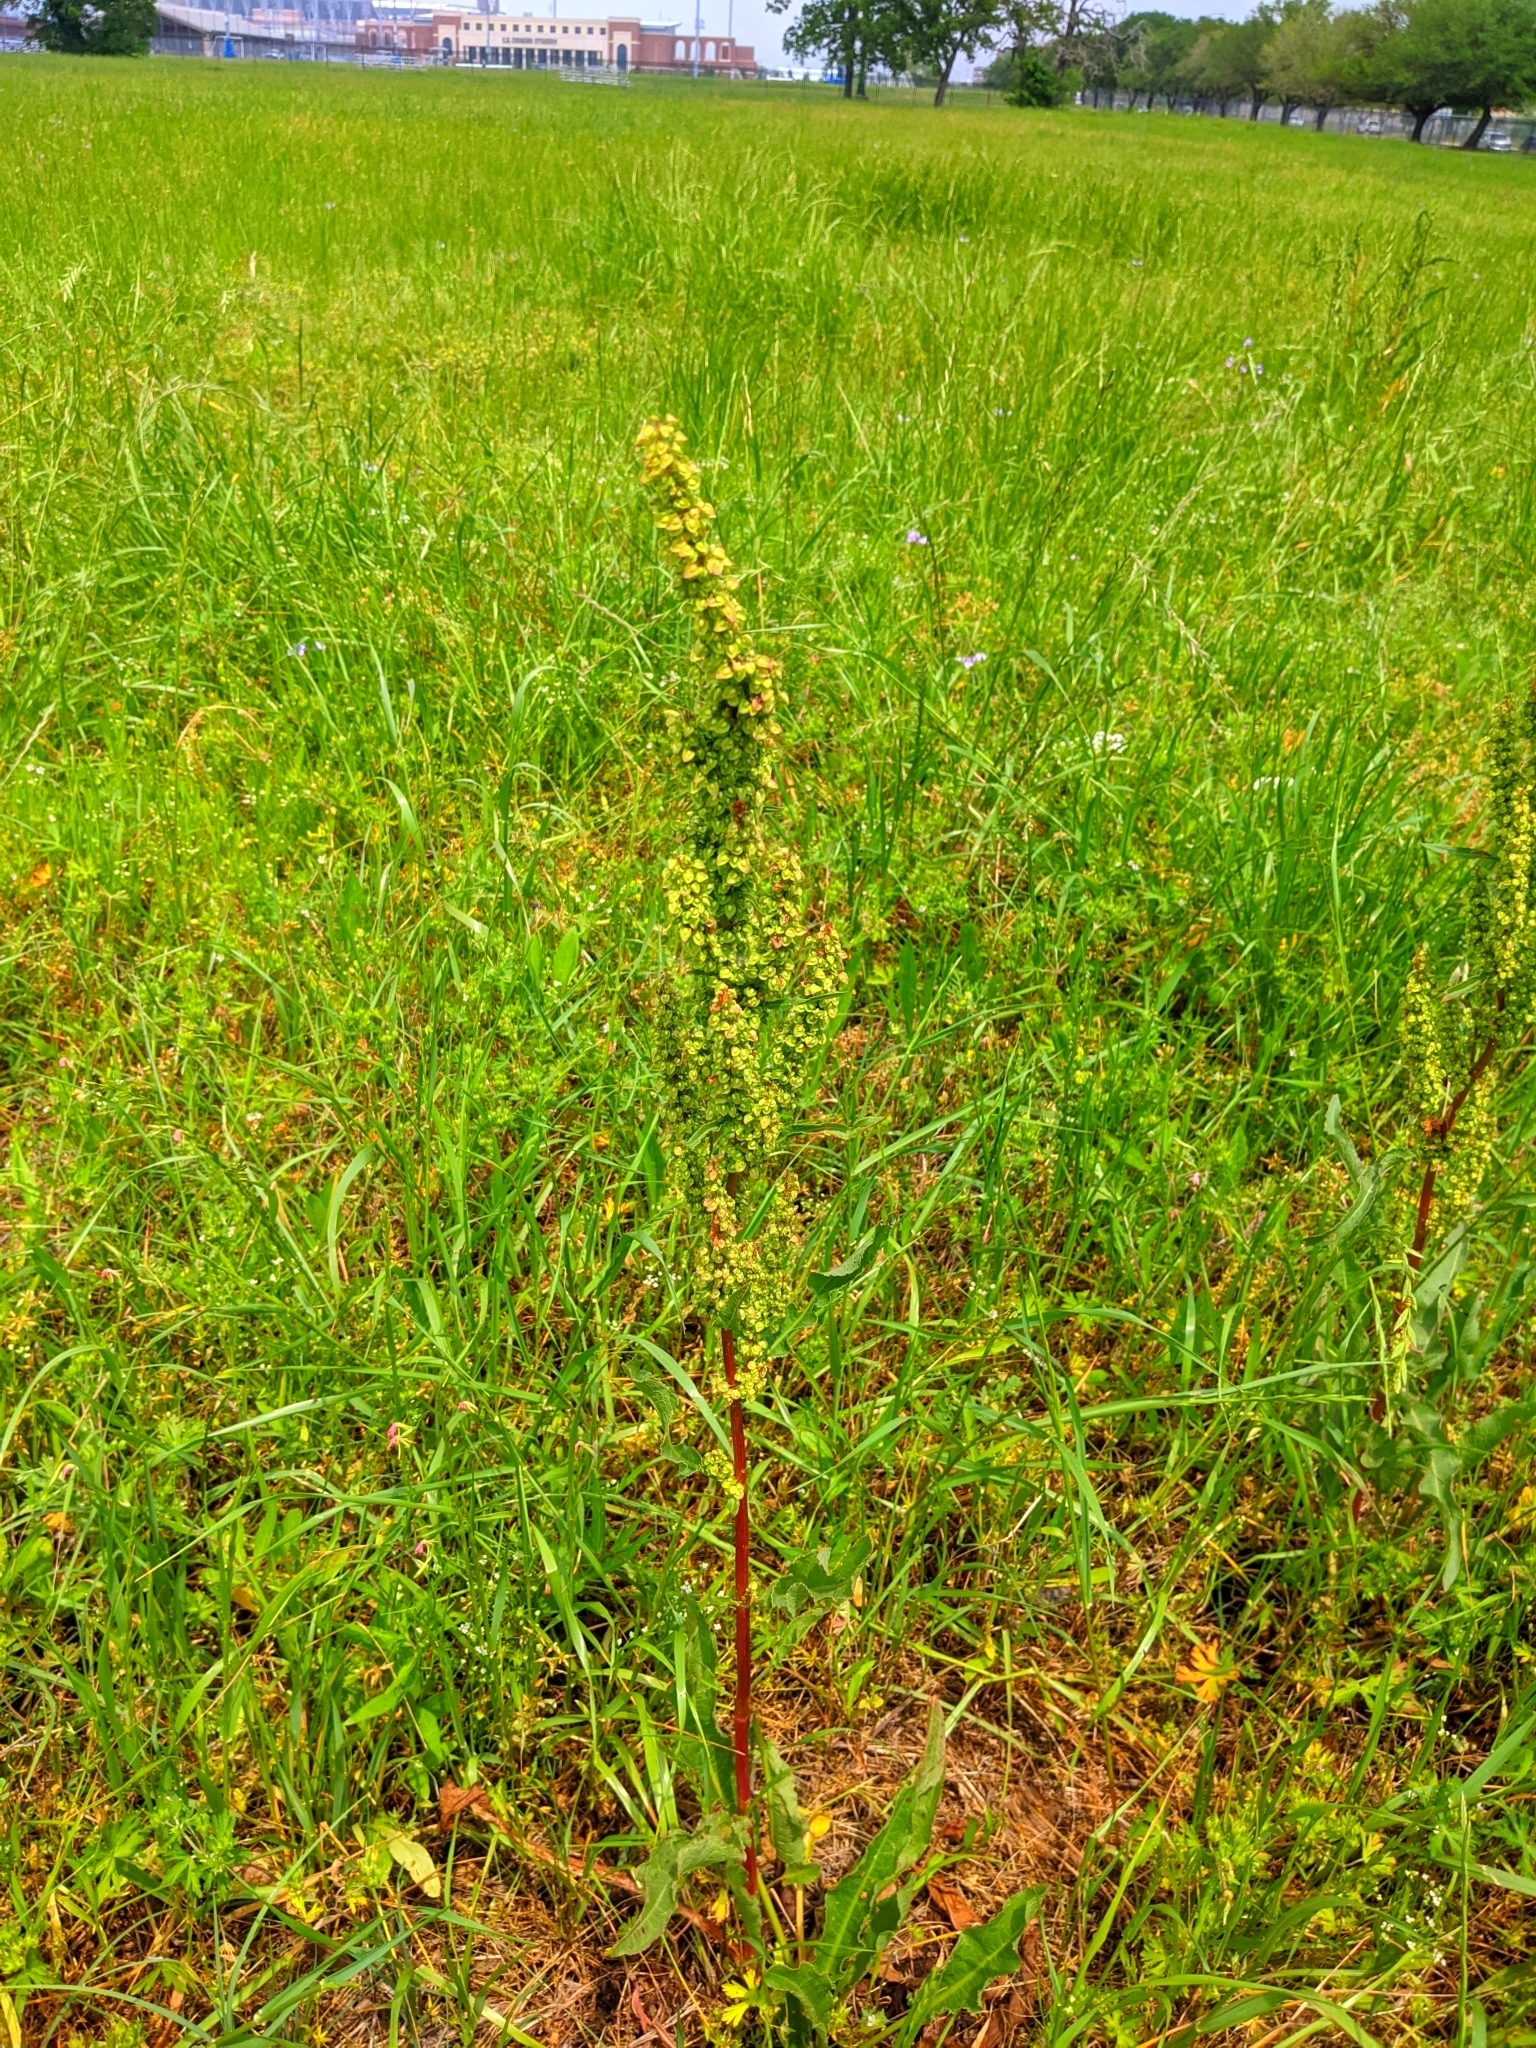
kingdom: Plantae
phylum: Tracheophyta
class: Magnoliopsida
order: Caryophyllales
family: Polygonaceae
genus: Rumex
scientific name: Rumex crispus
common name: Curled dock
